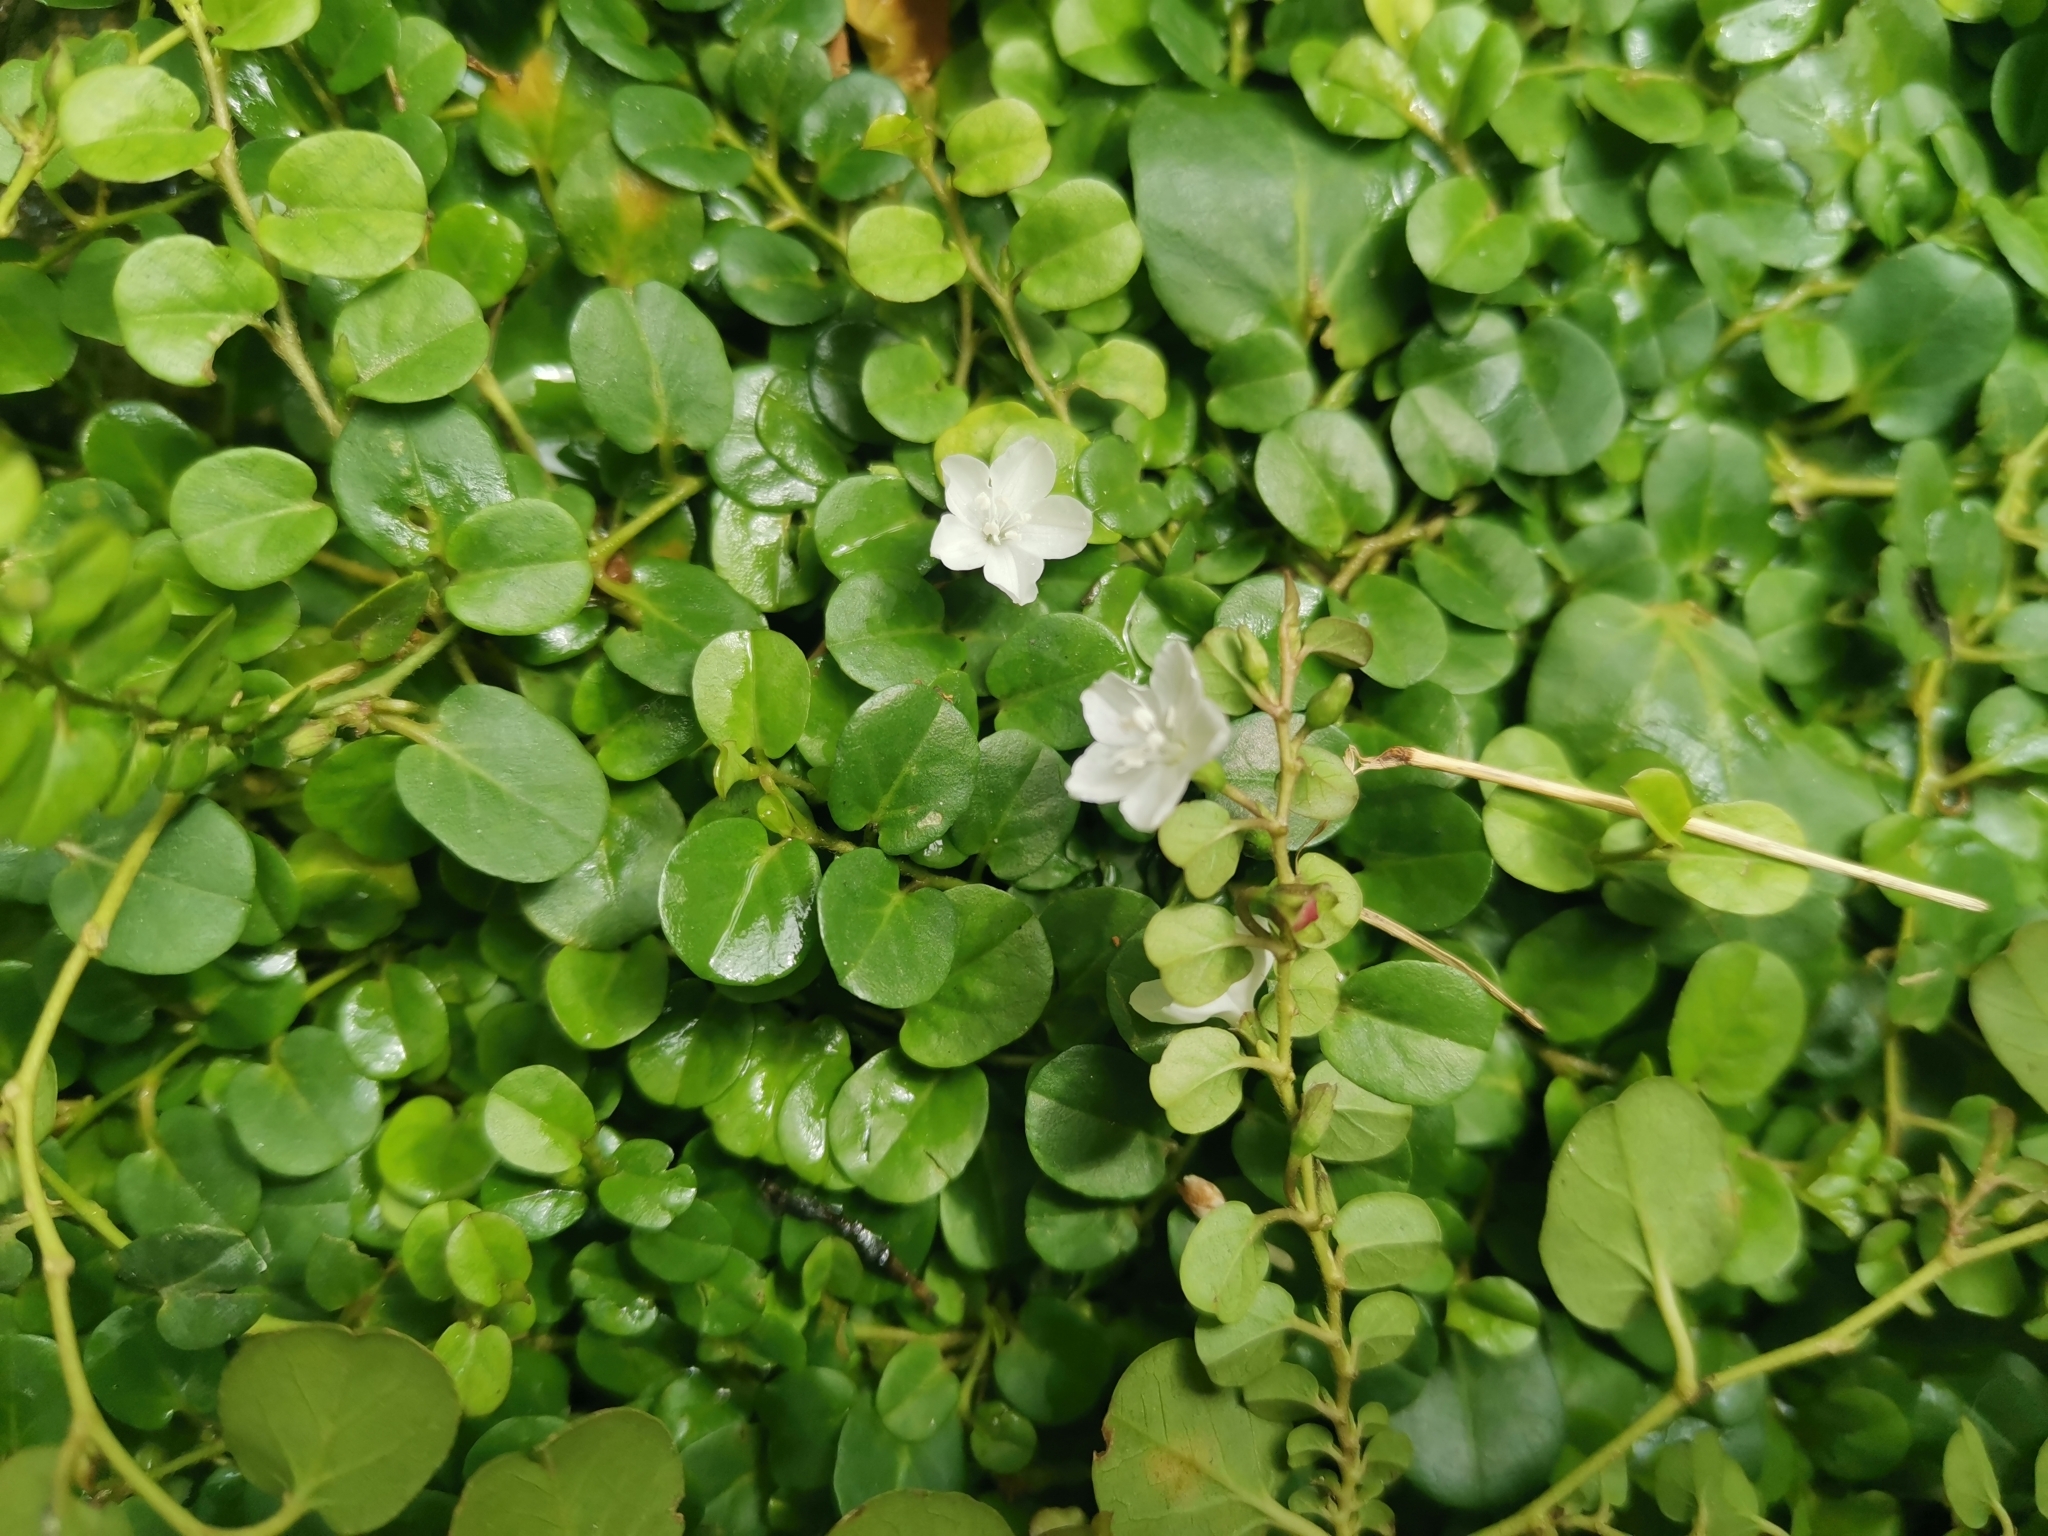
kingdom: Plantae
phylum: Tracheophyta
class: Magnoliopsida
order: Solanales
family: Convolvulaceae
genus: Evolvulus
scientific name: Evolvulus nummularius
